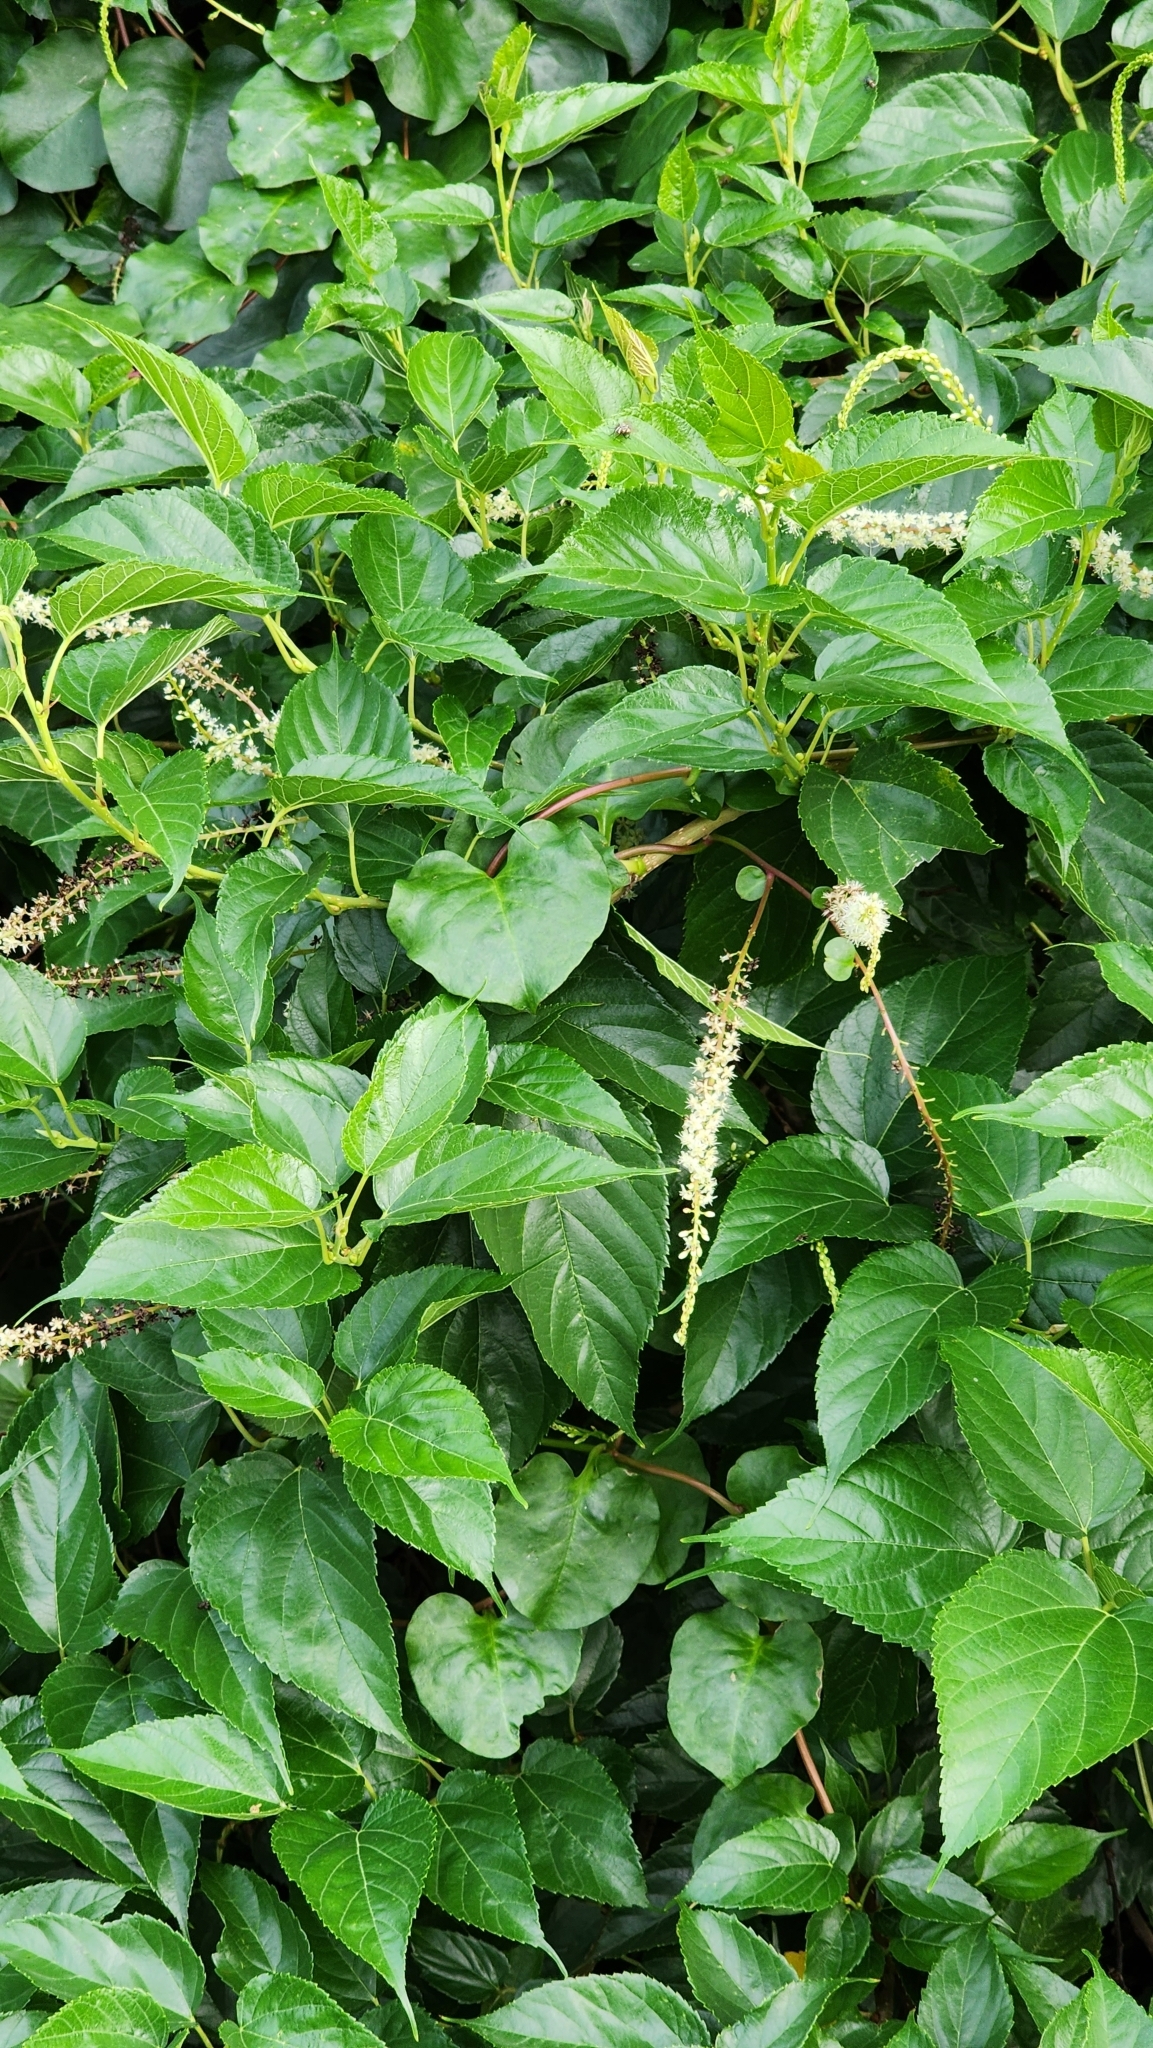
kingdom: Plantae
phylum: Tracheophyta
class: Magnoliopsida
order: Caryophyllales
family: Basellaceae
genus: Anredera
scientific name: Anredera cordifolia
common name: Heartleaf madeiravine
